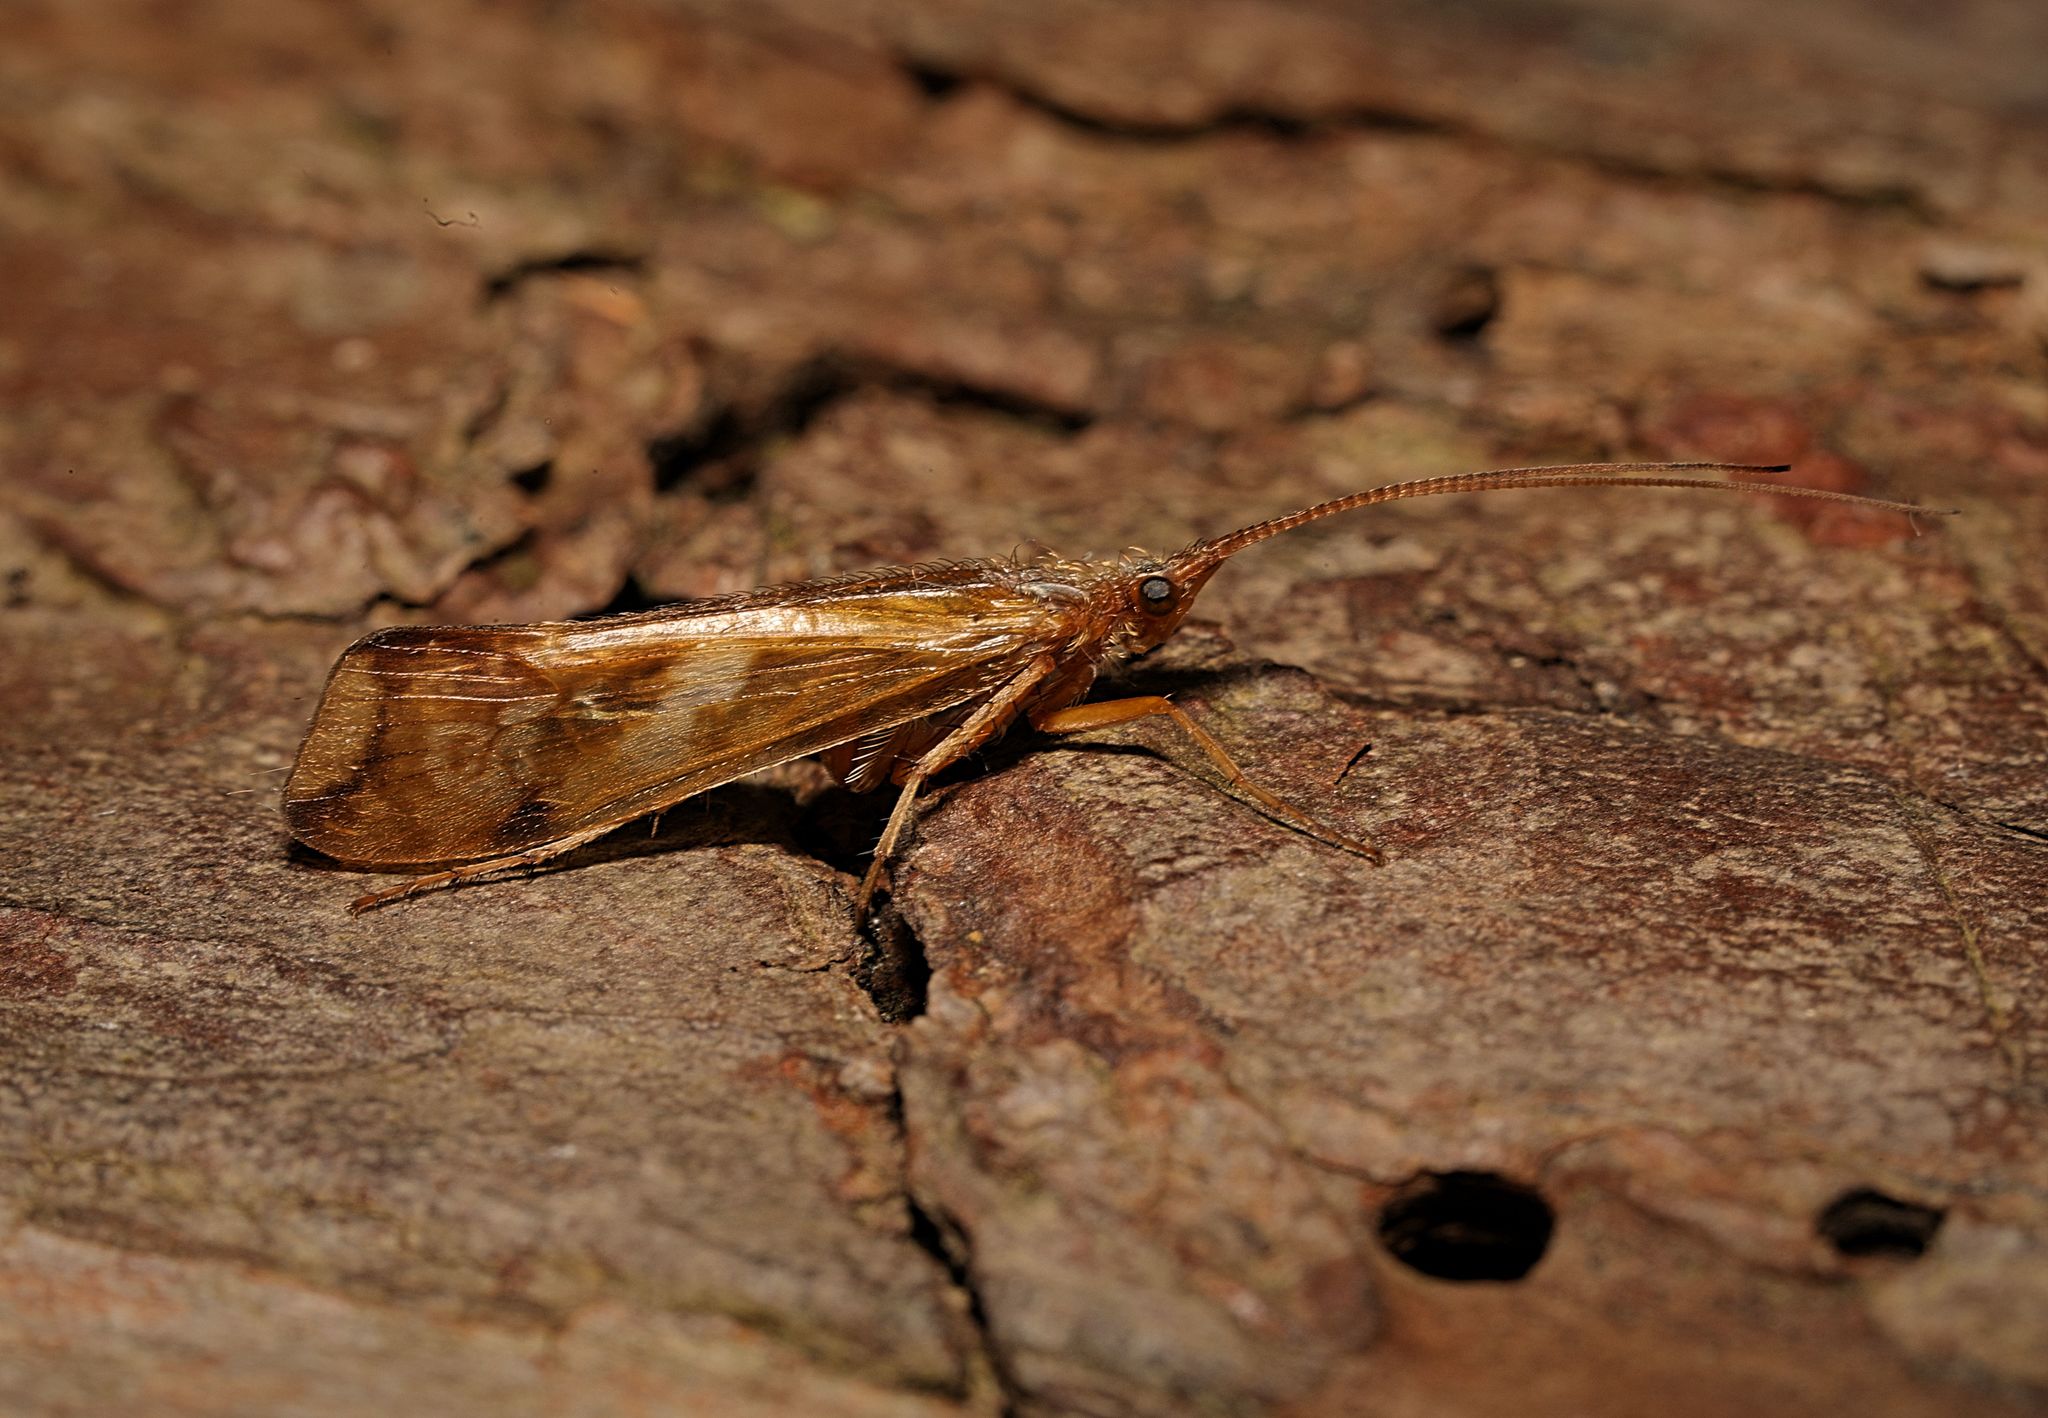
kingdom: Animalia
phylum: Arthropoda
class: Insecta
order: Trichoptera
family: Limnephilidae
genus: Limnephilus
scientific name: Limnephilus lunatus
